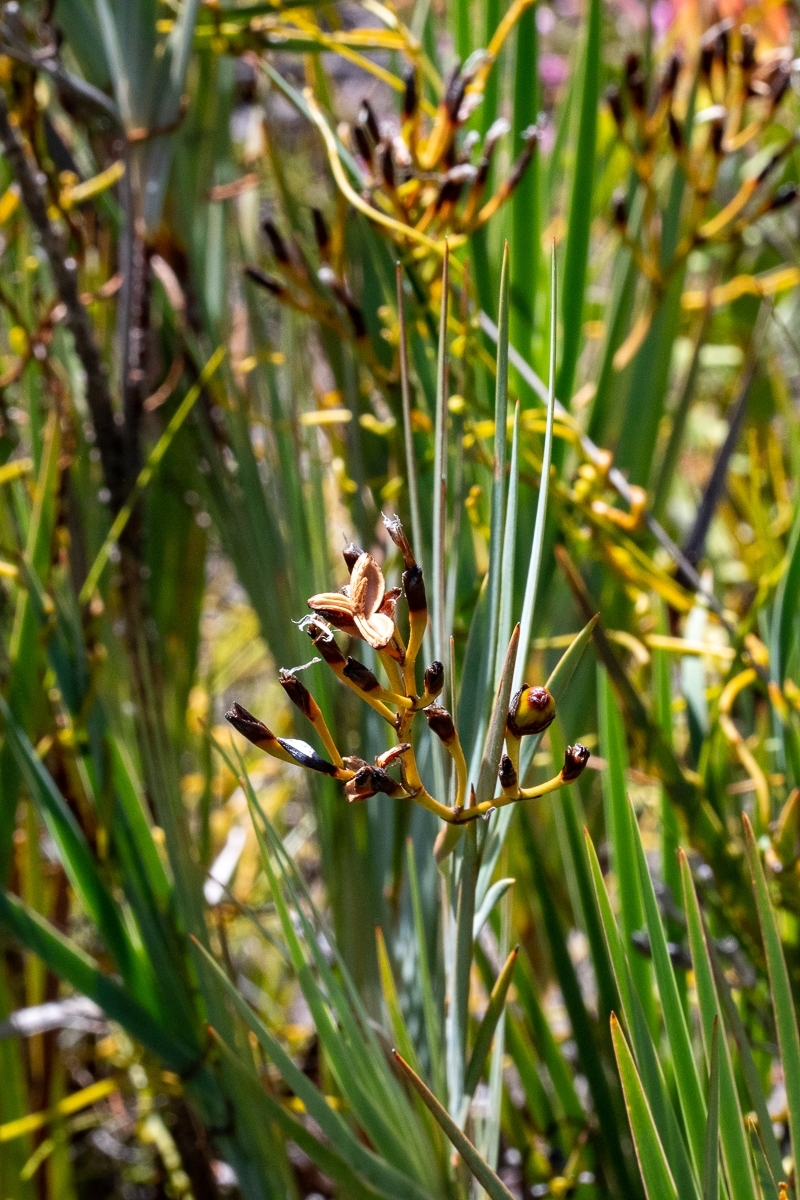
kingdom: Plantae
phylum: Tracheophyta
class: Liliopsida
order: Asparagales
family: Iridaceae
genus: Nivenia
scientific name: Nivenia stokoei
